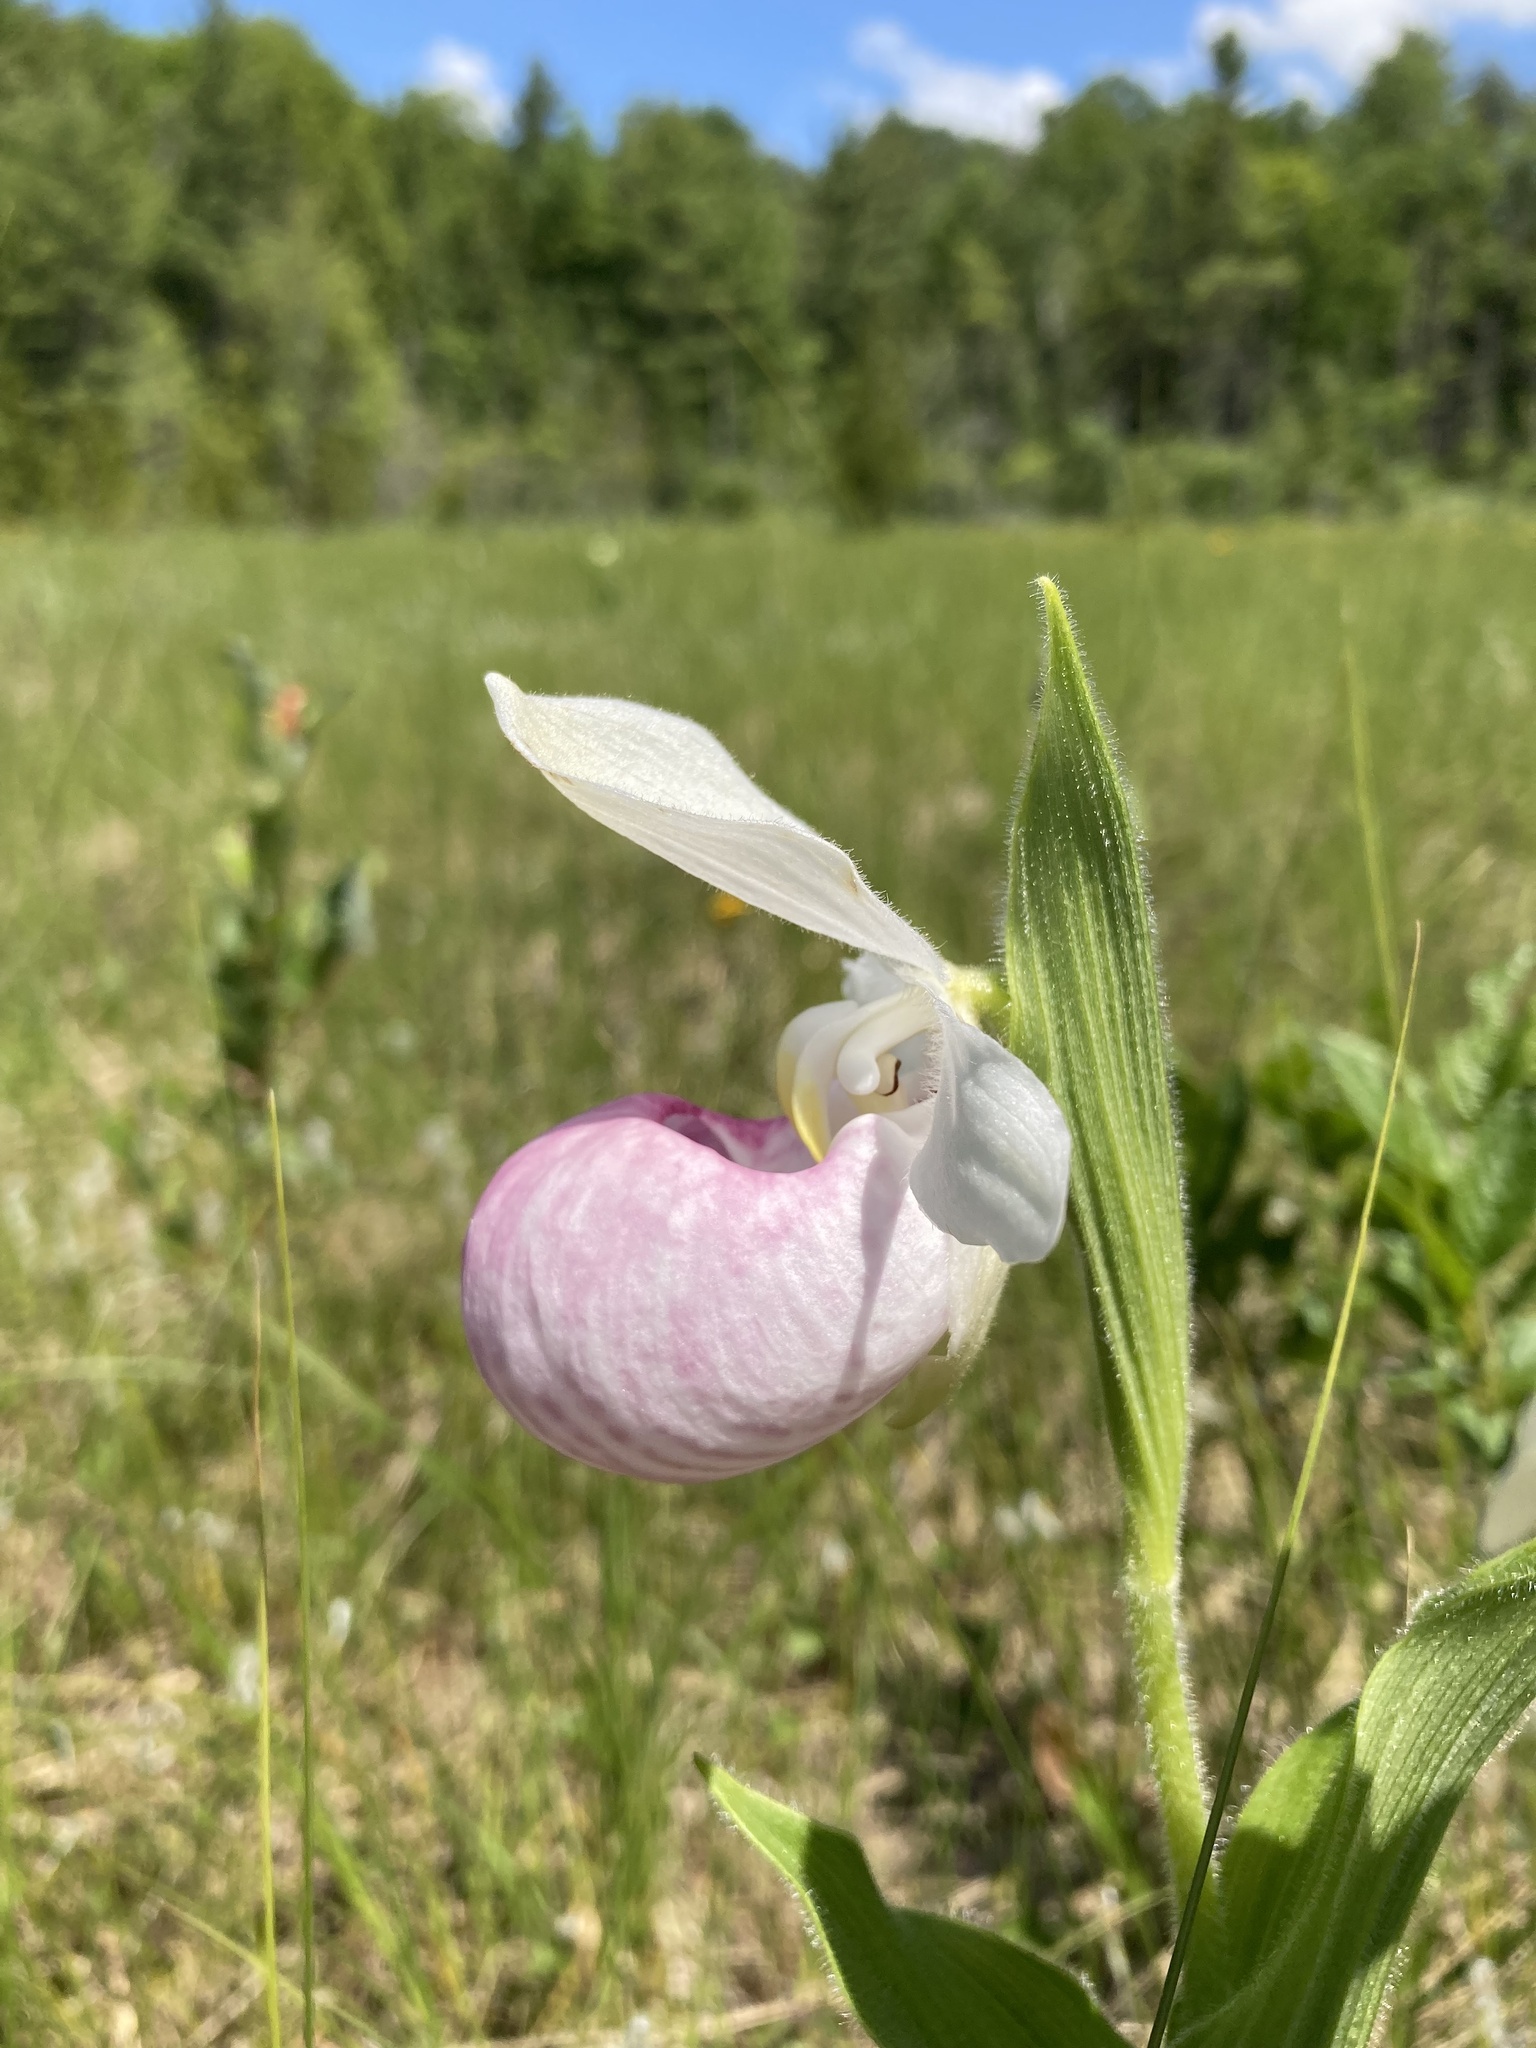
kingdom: Plantae
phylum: Tracheophyta
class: Liliopsida
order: Asparagales
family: Orchidaceae
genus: Cypripedium
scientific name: Cypripedium reginae
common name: Queen lady's-slipper
